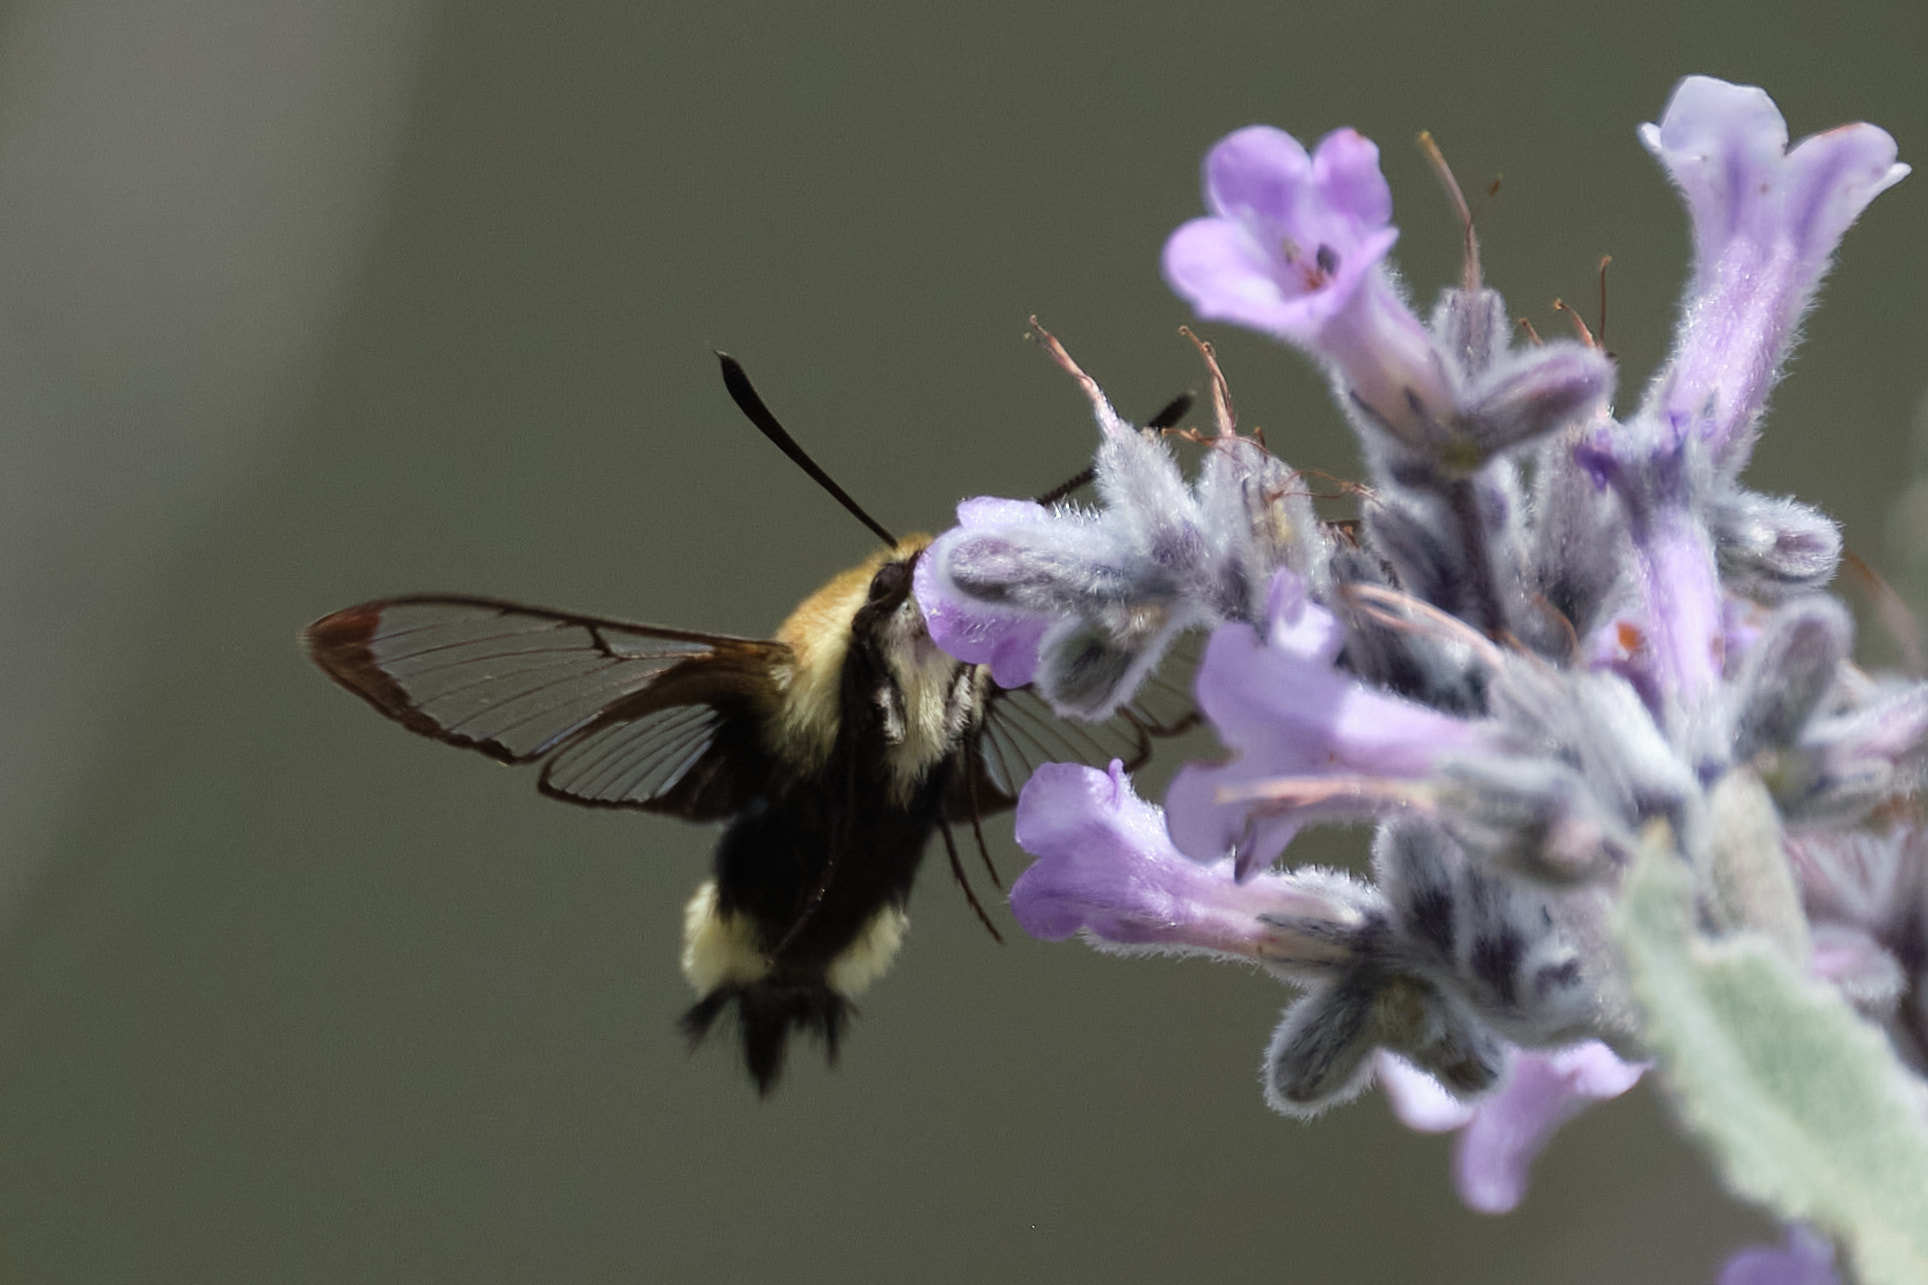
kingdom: Animalia
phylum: Arthropoda
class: Insecta
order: Lepidoptera
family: Sphingidae
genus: Hemaris
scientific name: Hemaris thetis
